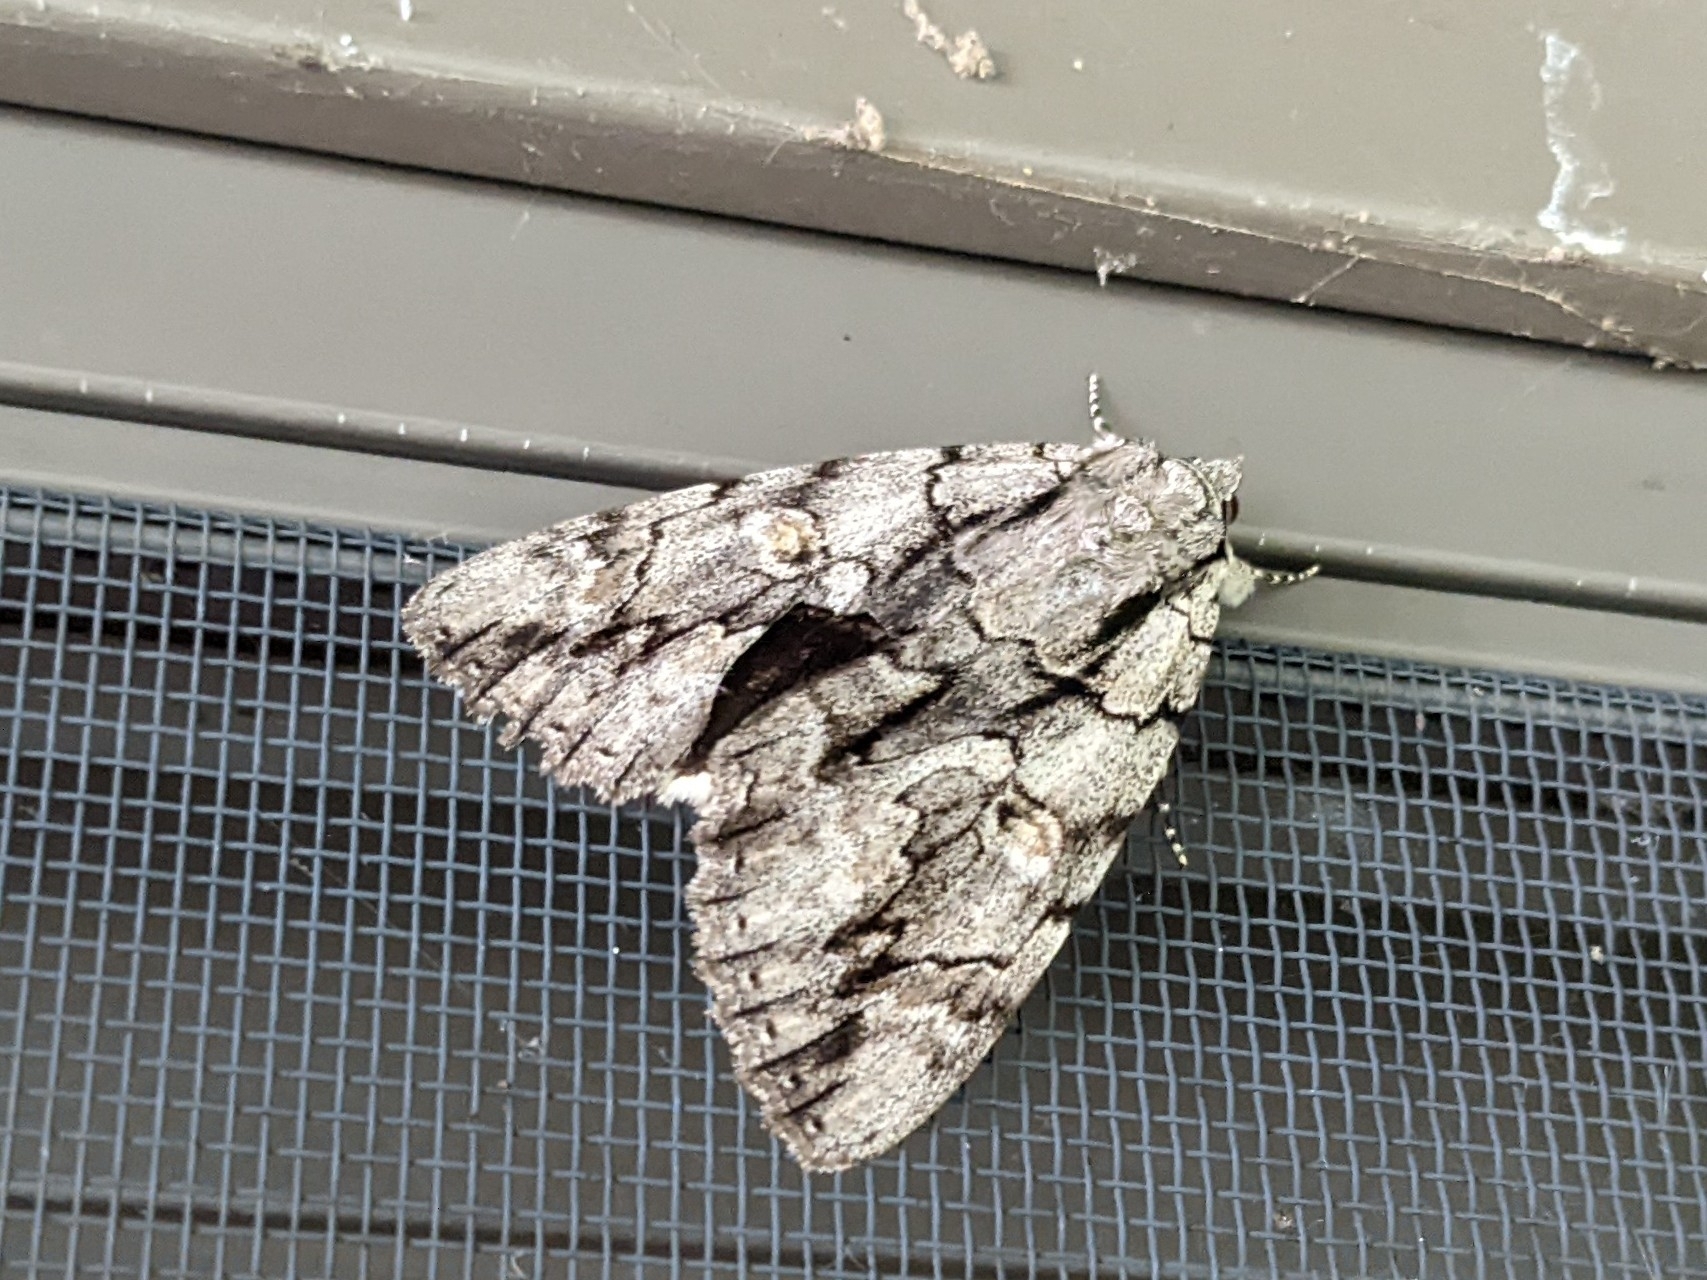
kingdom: Animalia
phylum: Arthropoda
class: Insecta
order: Lepidoptera
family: Erebidae
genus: Catocala
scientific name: Catocala retecta
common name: Yellow-gray underwing
